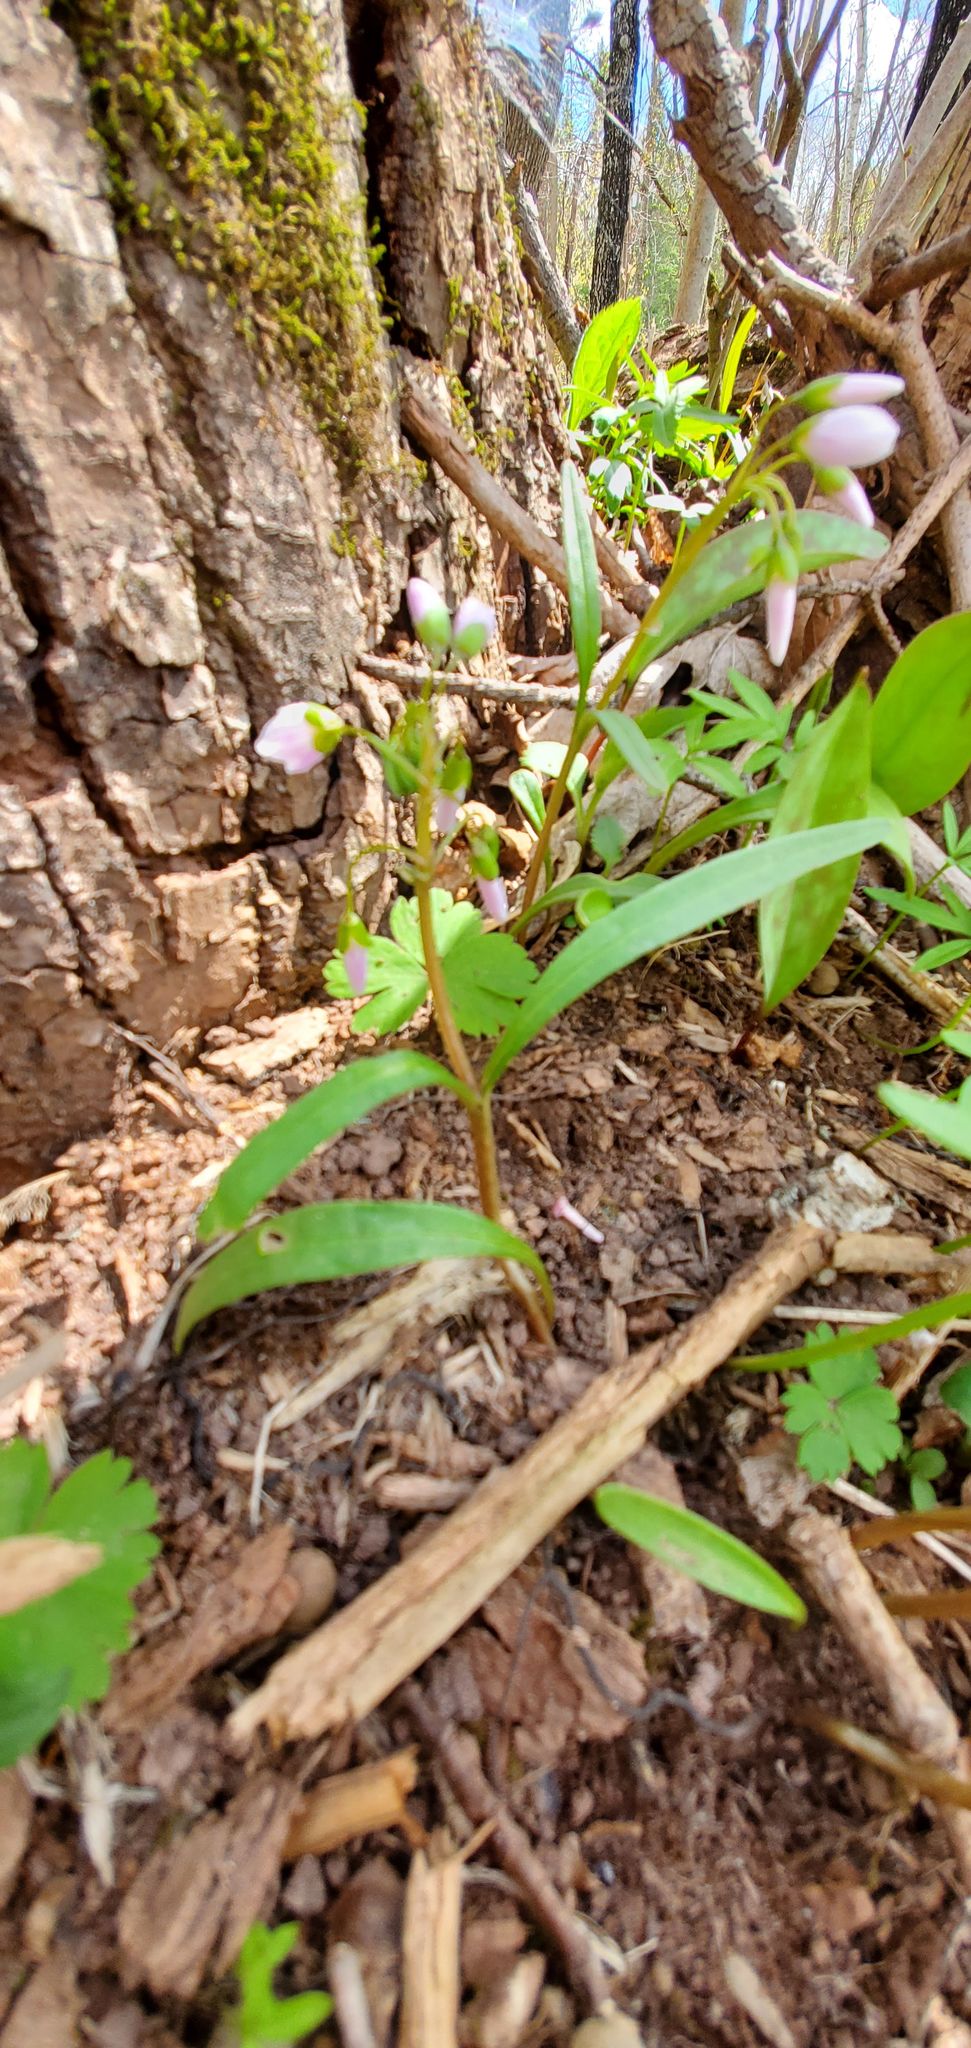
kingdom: Plantae
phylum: Tracheophyta
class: Magnoliopsida
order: Caryophyllales
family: Montiaceae
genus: Claytonia
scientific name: Claytonia virginica
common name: Virginia springbeauty
